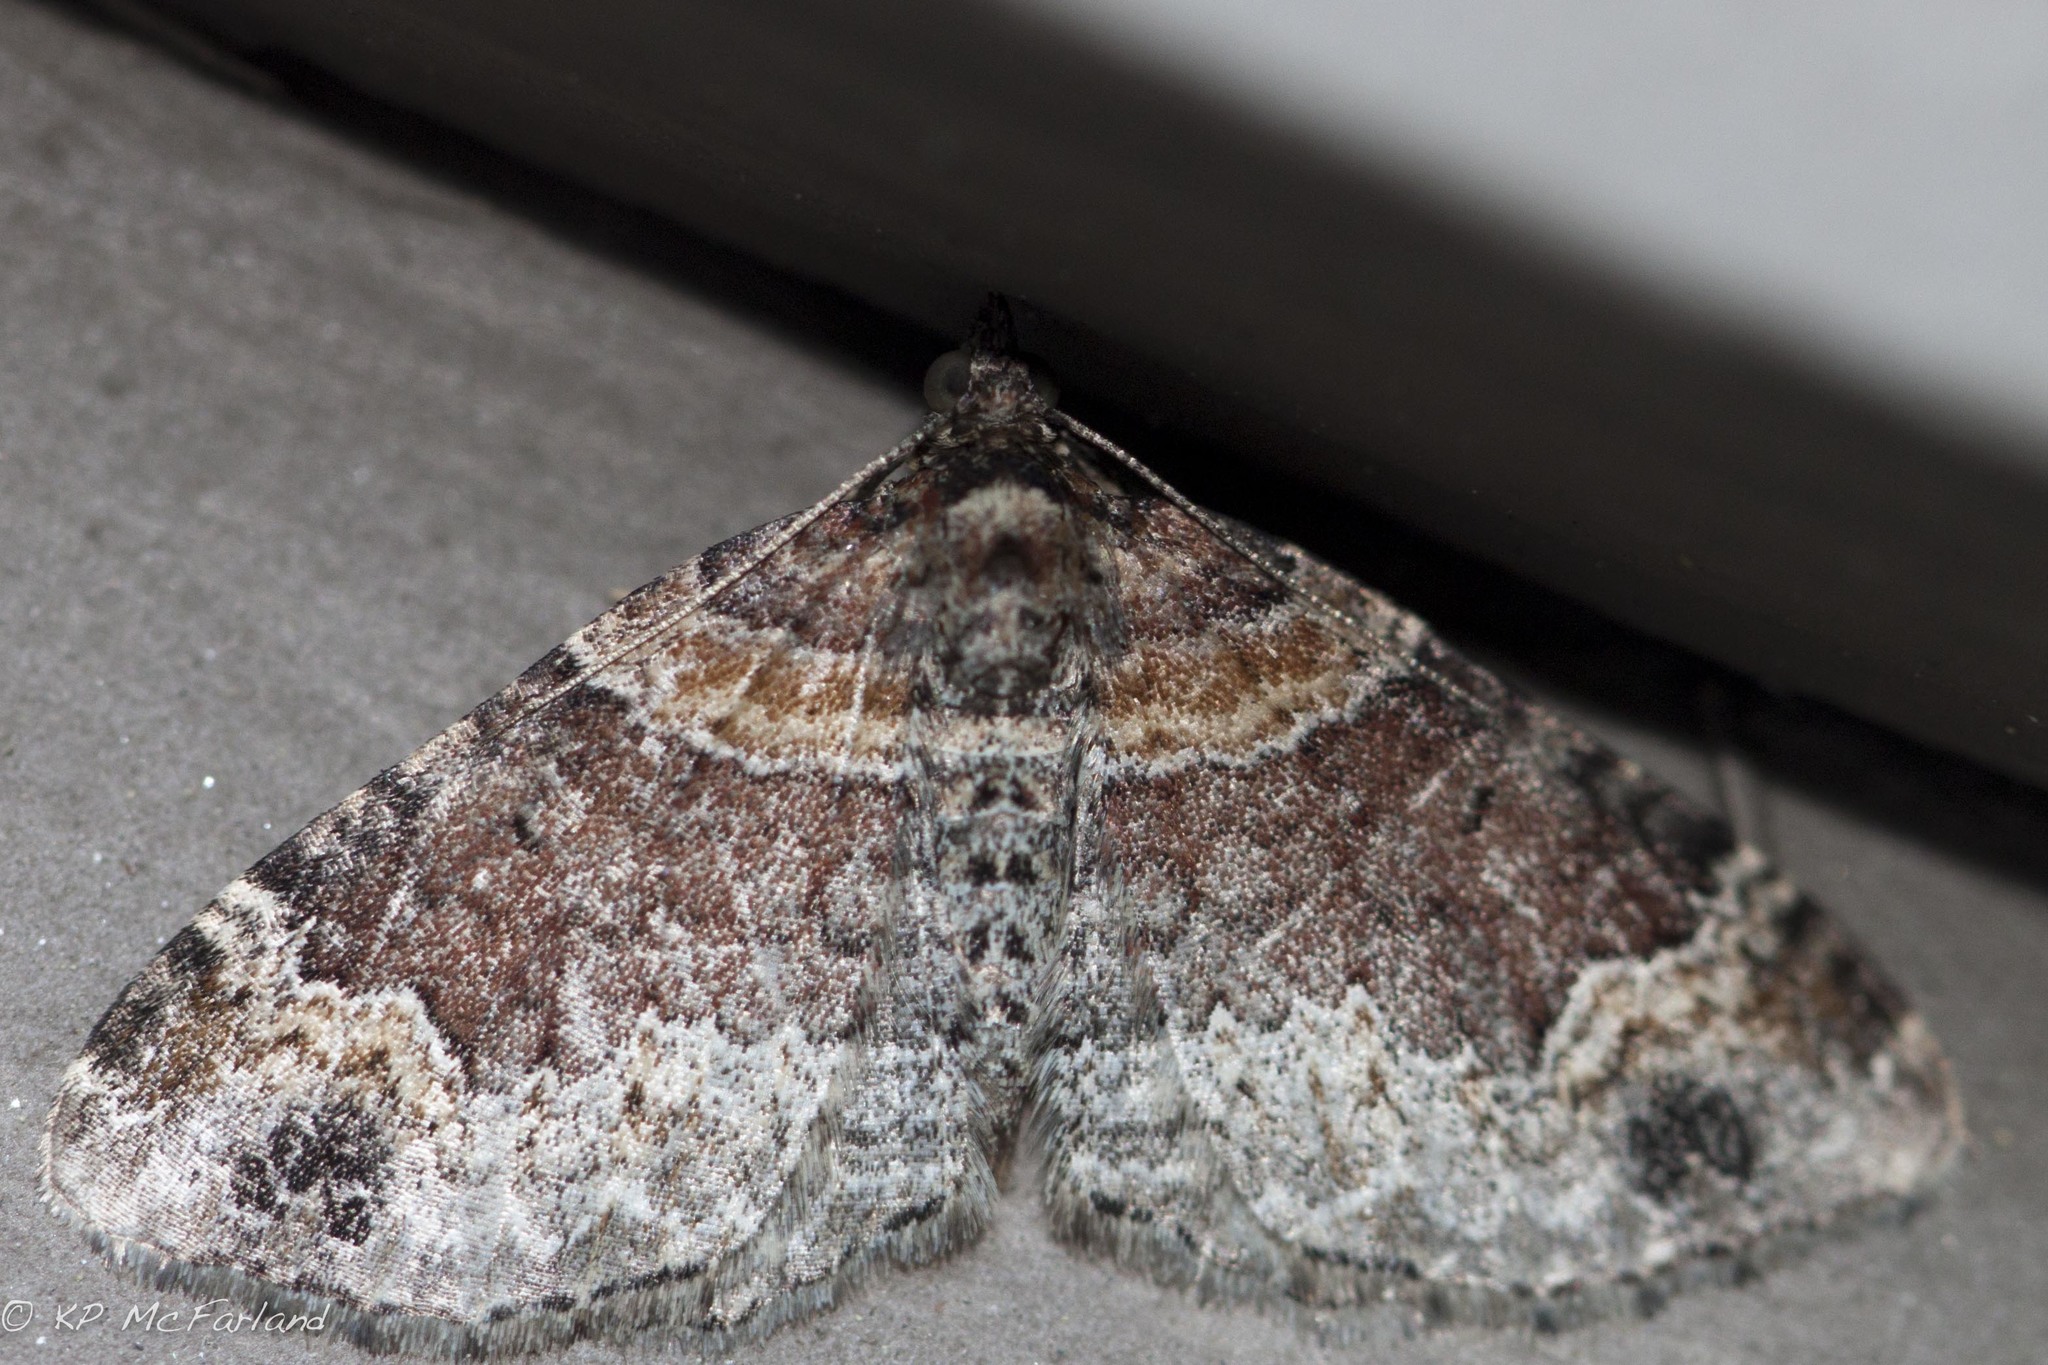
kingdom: Animalia
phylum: Arthropoda
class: Insecta
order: Lepidoptera
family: Geometridae
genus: Xanthorhoe
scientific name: Xanthorhoe ferrugata
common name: Dark-barred twin-spot carpet
